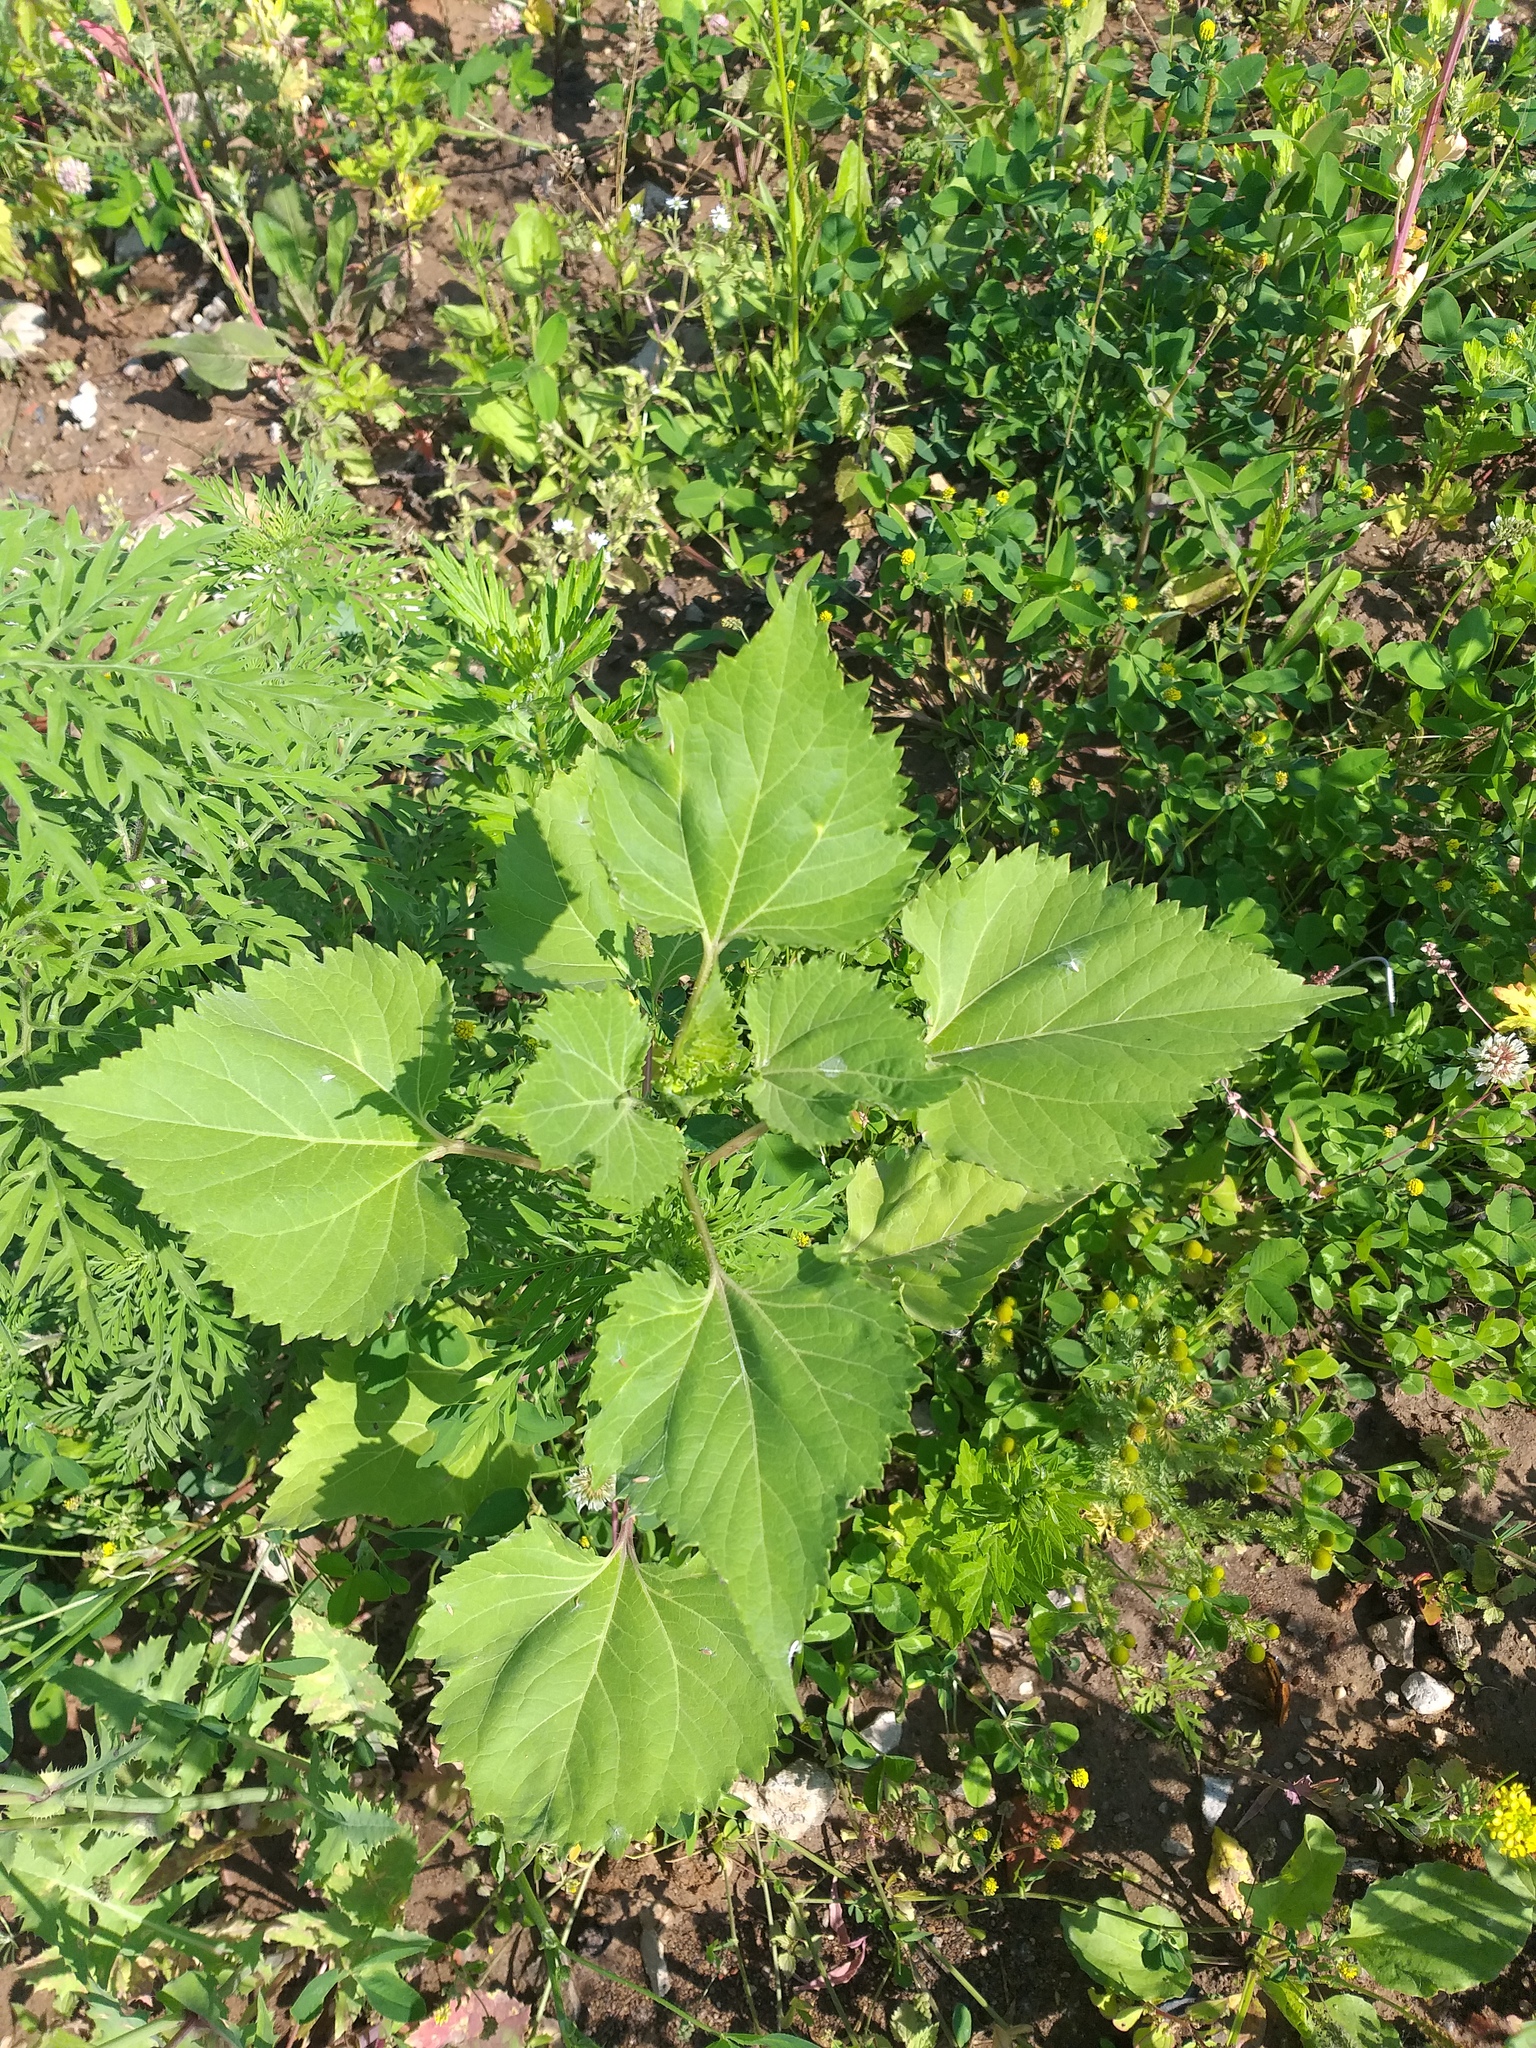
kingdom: Plantae
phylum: Tracheophyta
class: Magnoliopsida
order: Asterales
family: Asteraceae
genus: Cyclachaena
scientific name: Cyclachaena xanthiifolia
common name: Giant sumpweed
